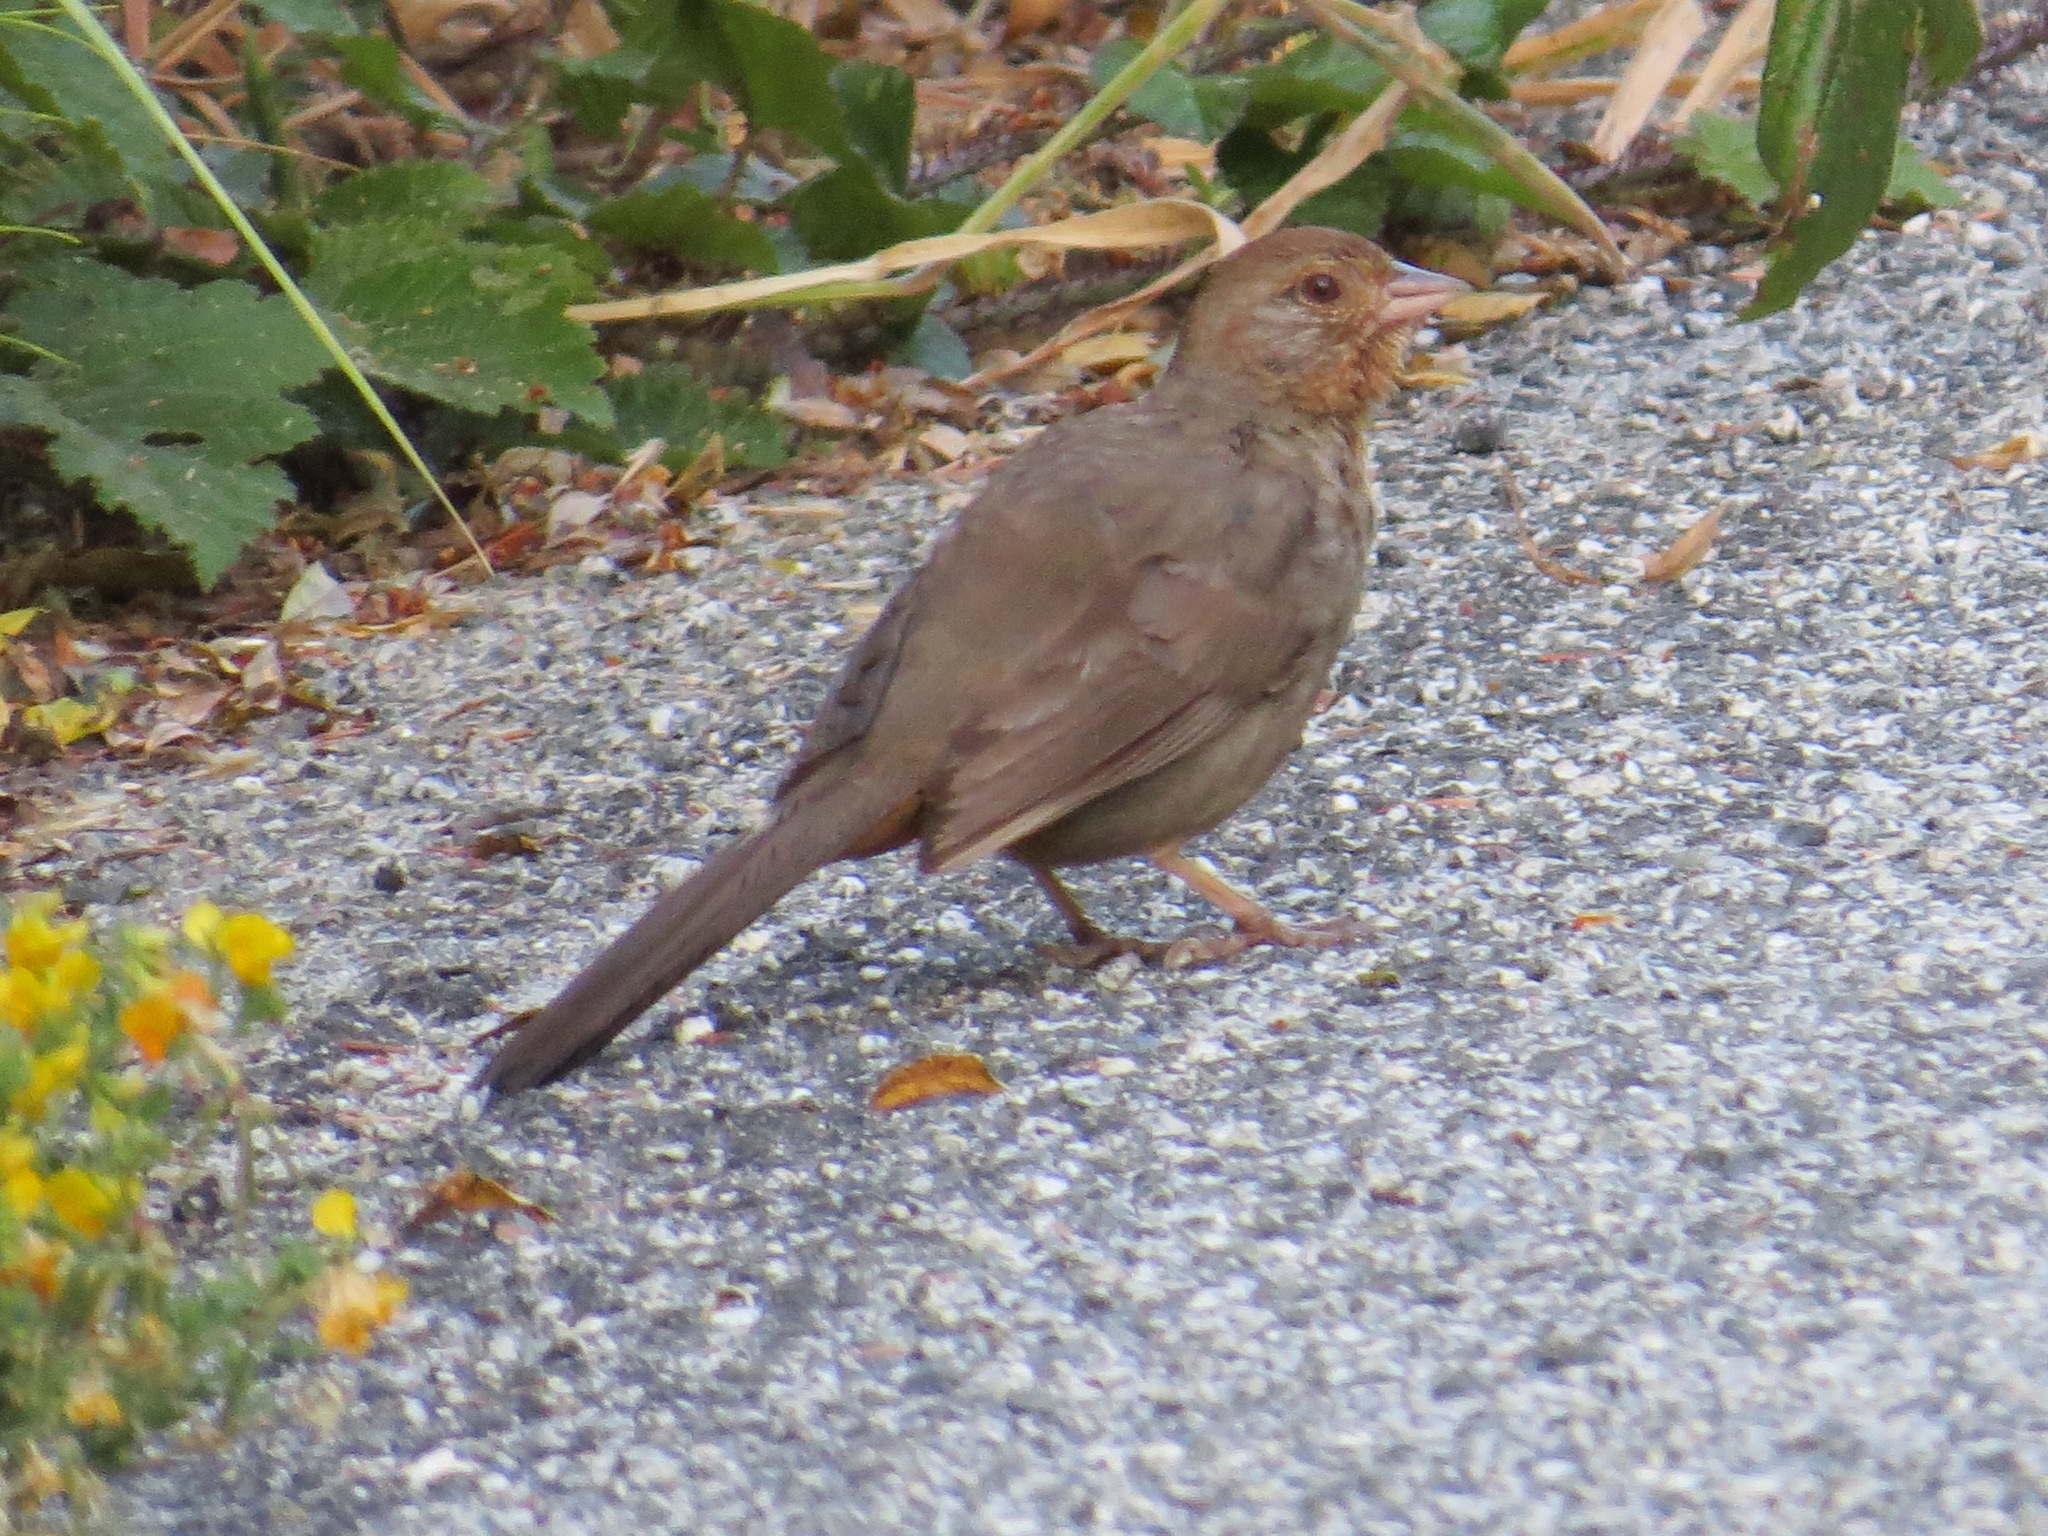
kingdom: Animalia
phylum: Chordata
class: Aves
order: Passeriformes
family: Passerellidae
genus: Melozone
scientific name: Melozone crissalis
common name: California towhee
